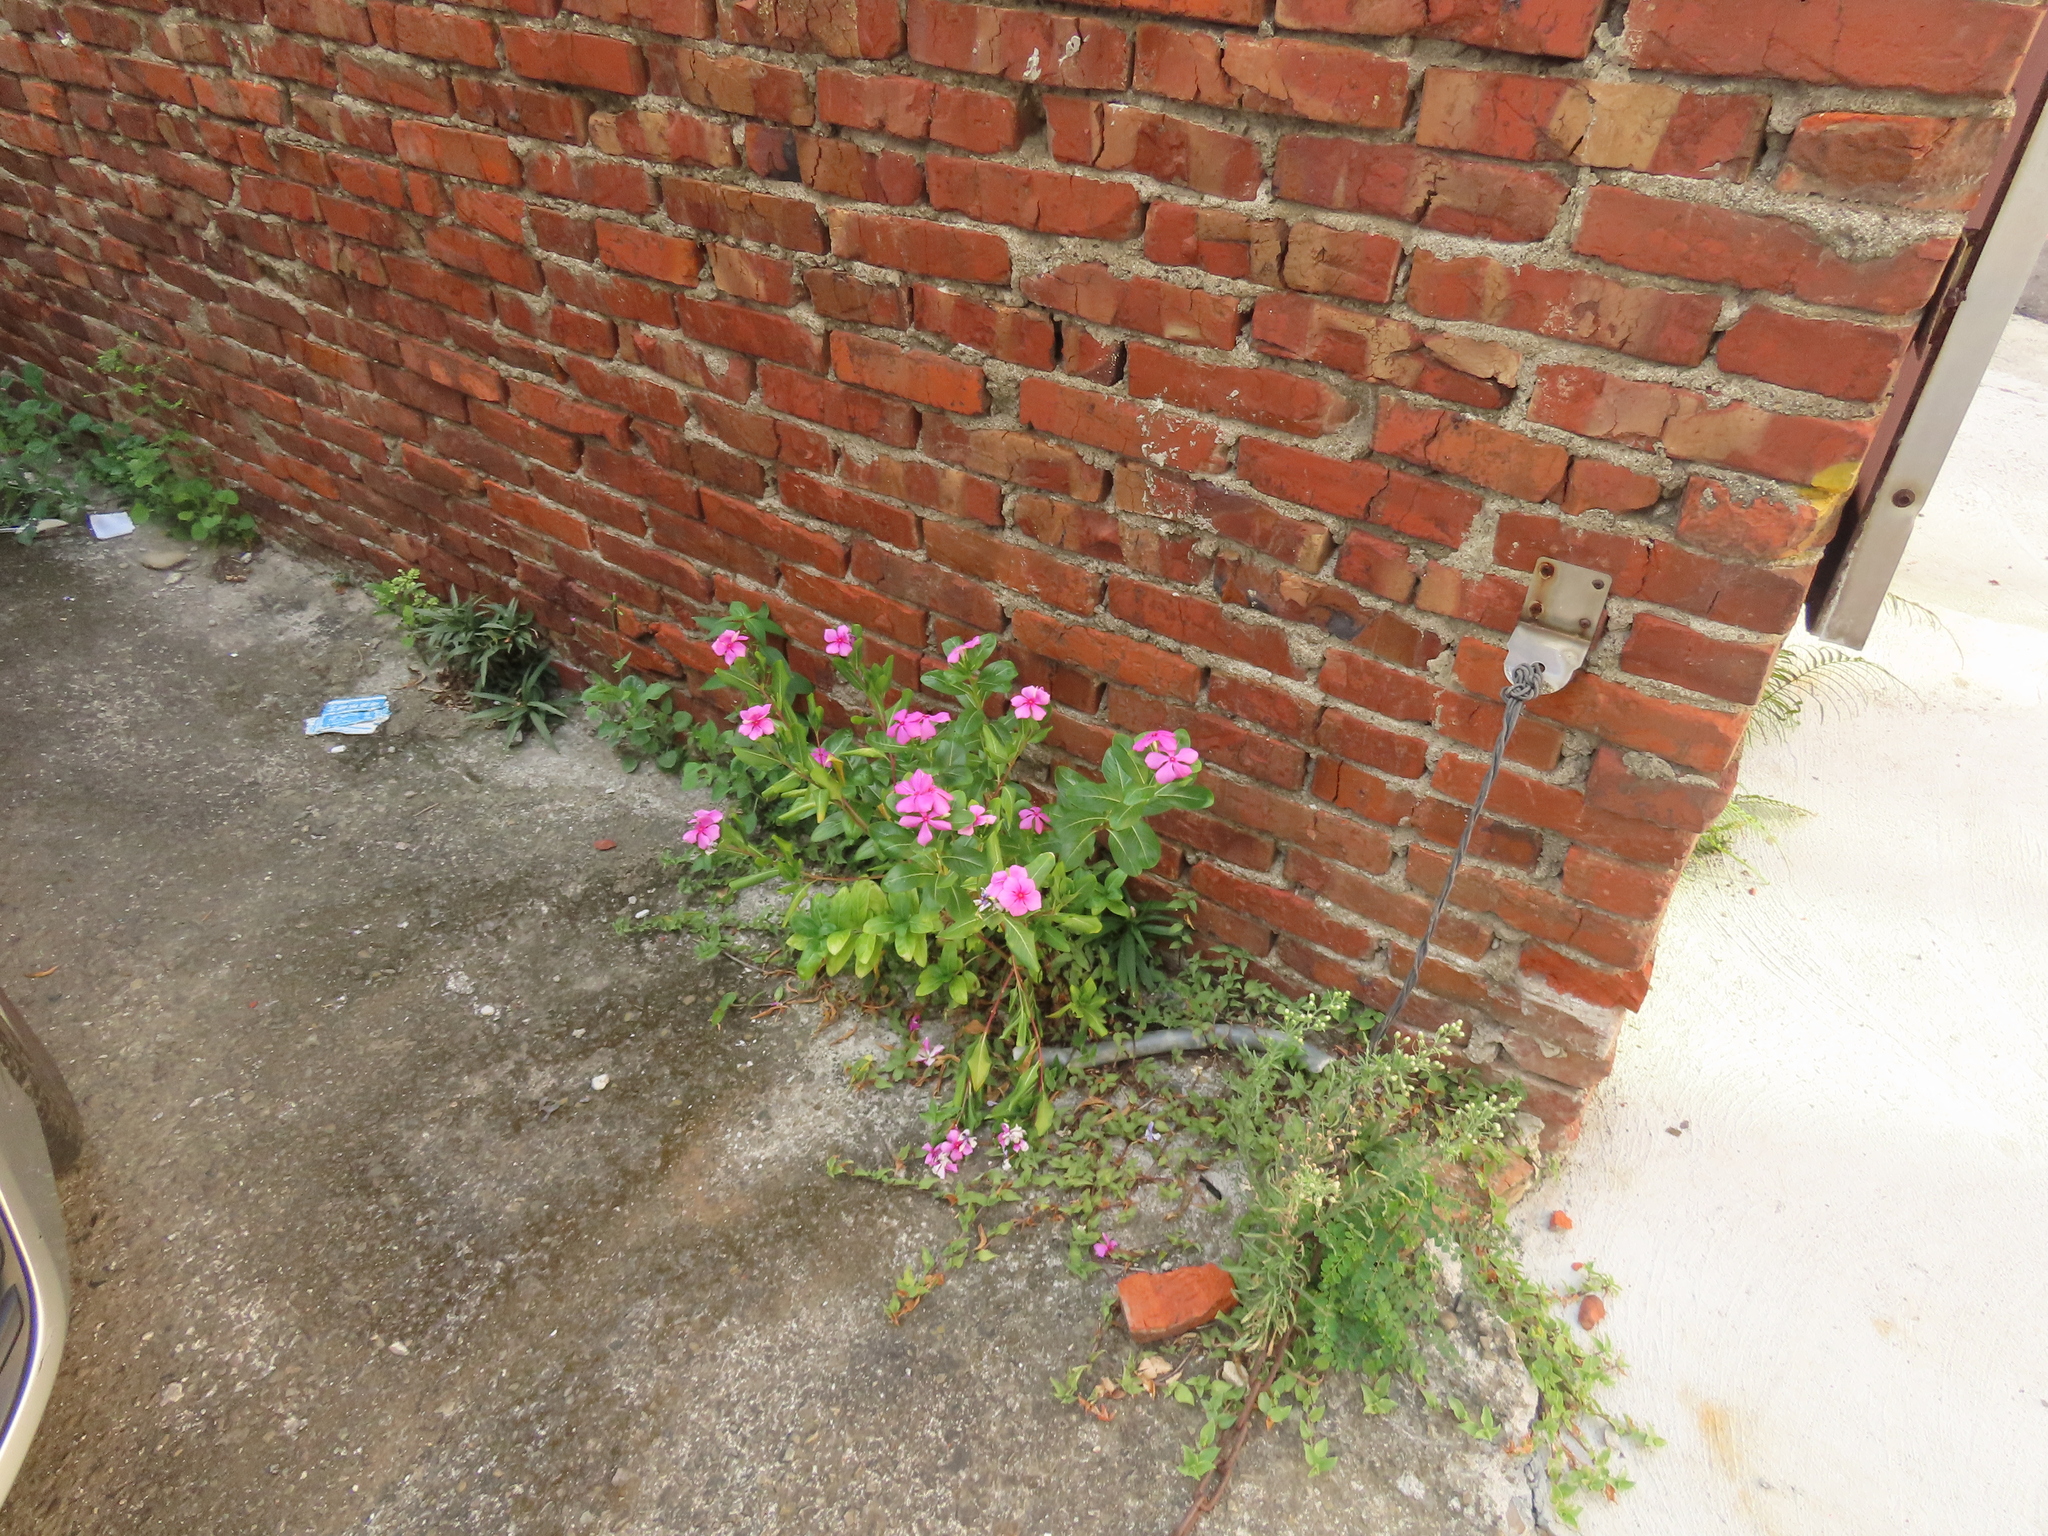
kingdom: Plantae
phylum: Tracheophyta
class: Magnoliopsida
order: Gentianales
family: Apocynaceae
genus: Catharanthus
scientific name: Catharanthus roseus
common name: Madagascar periwinkle
